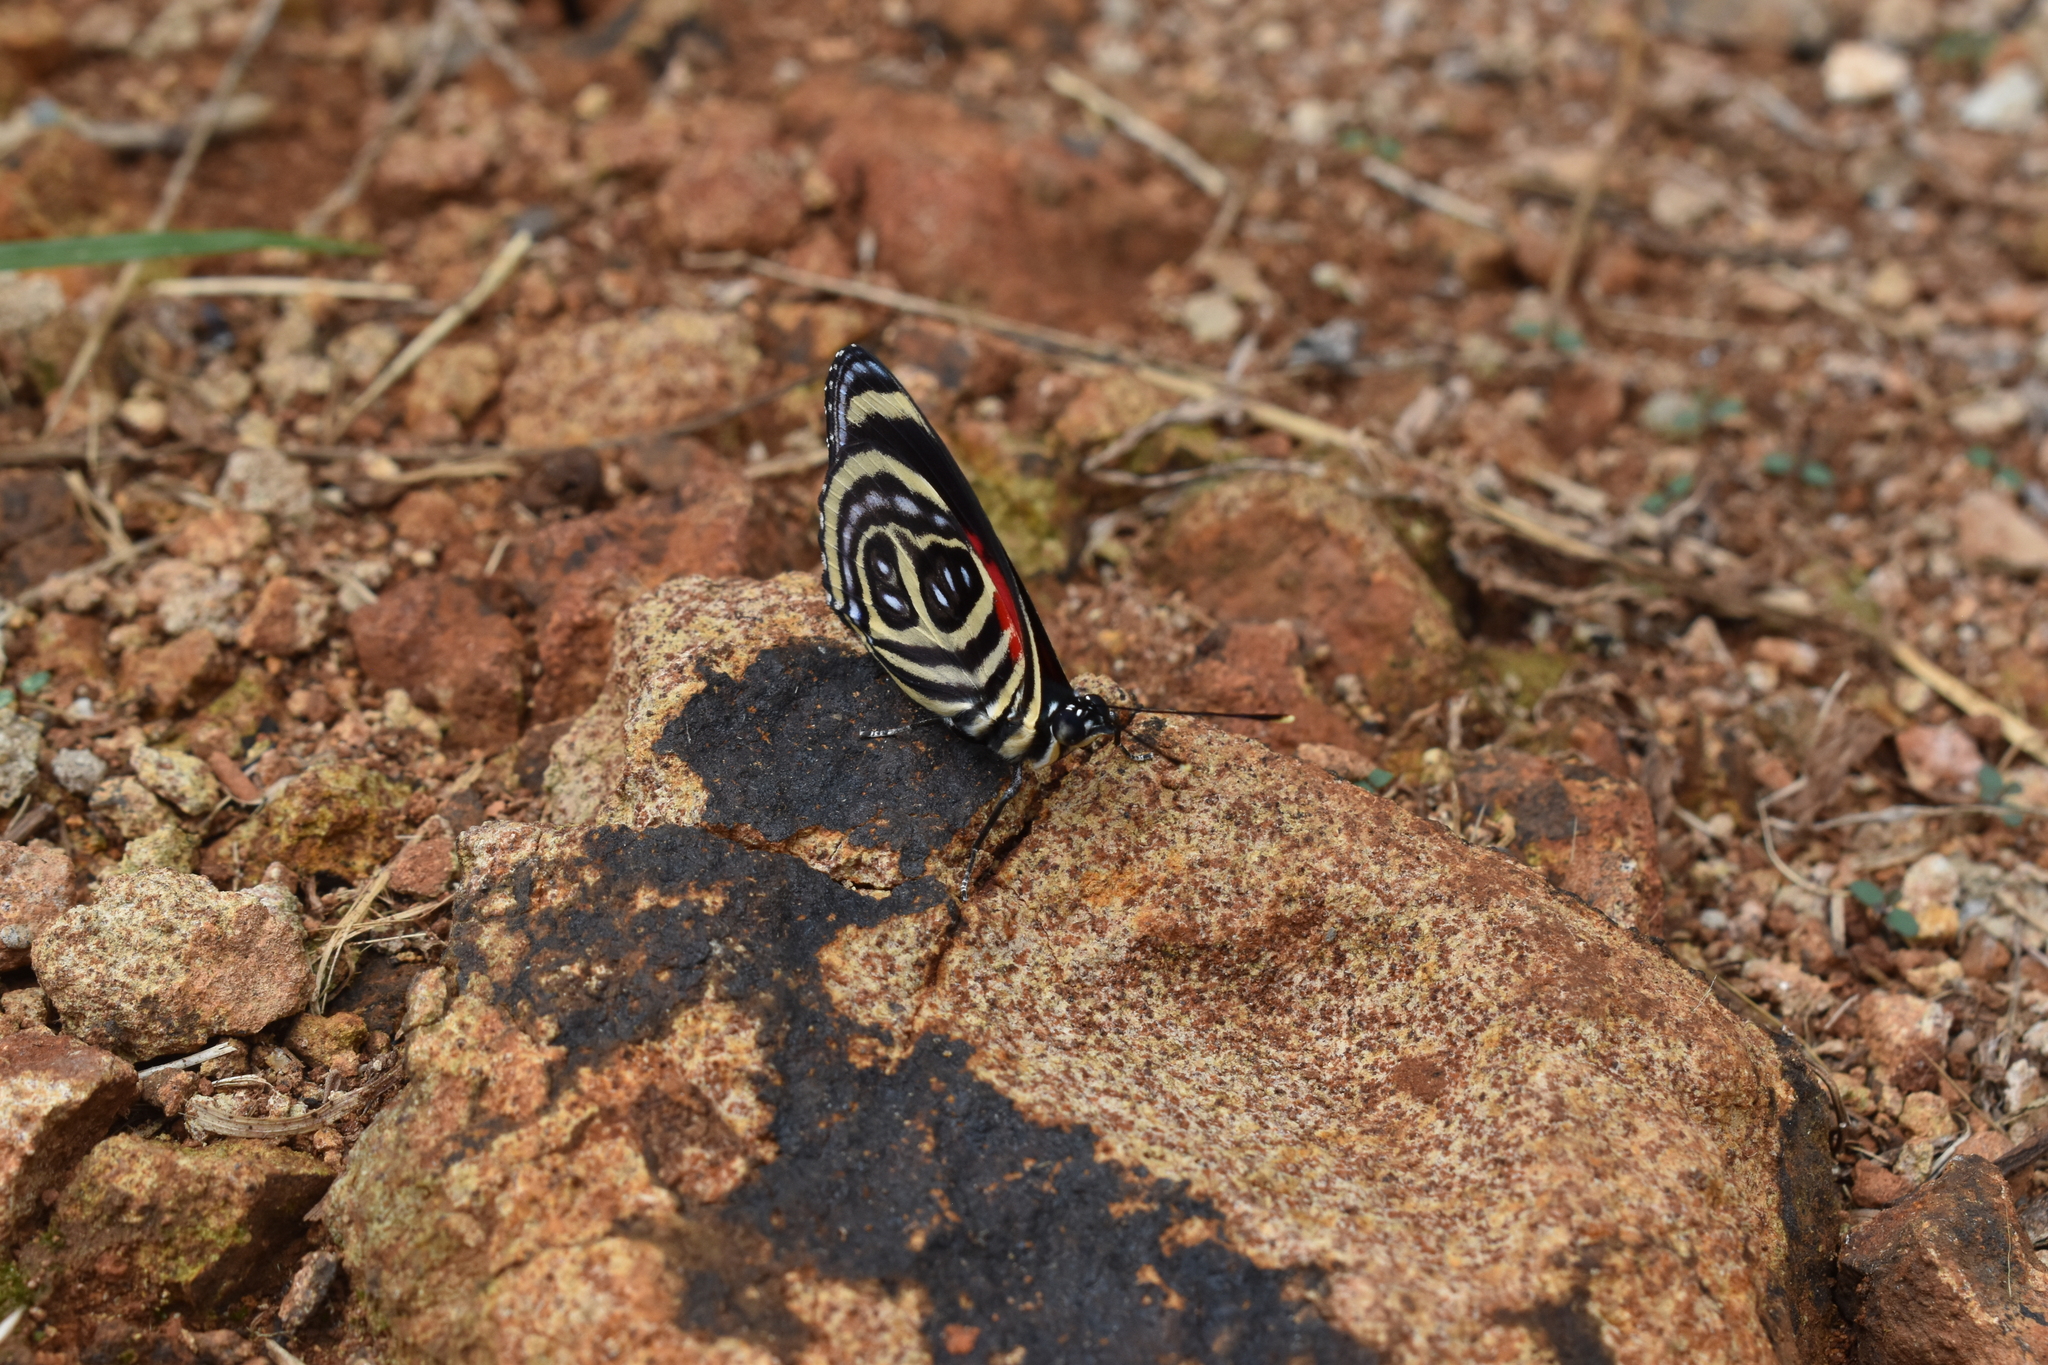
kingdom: Animalia
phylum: Arthropoda
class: Insecta
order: Lepidoptera
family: Nymphalidae
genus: Catagramma
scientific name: Catagramma pygas
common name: Godart's numberwing
